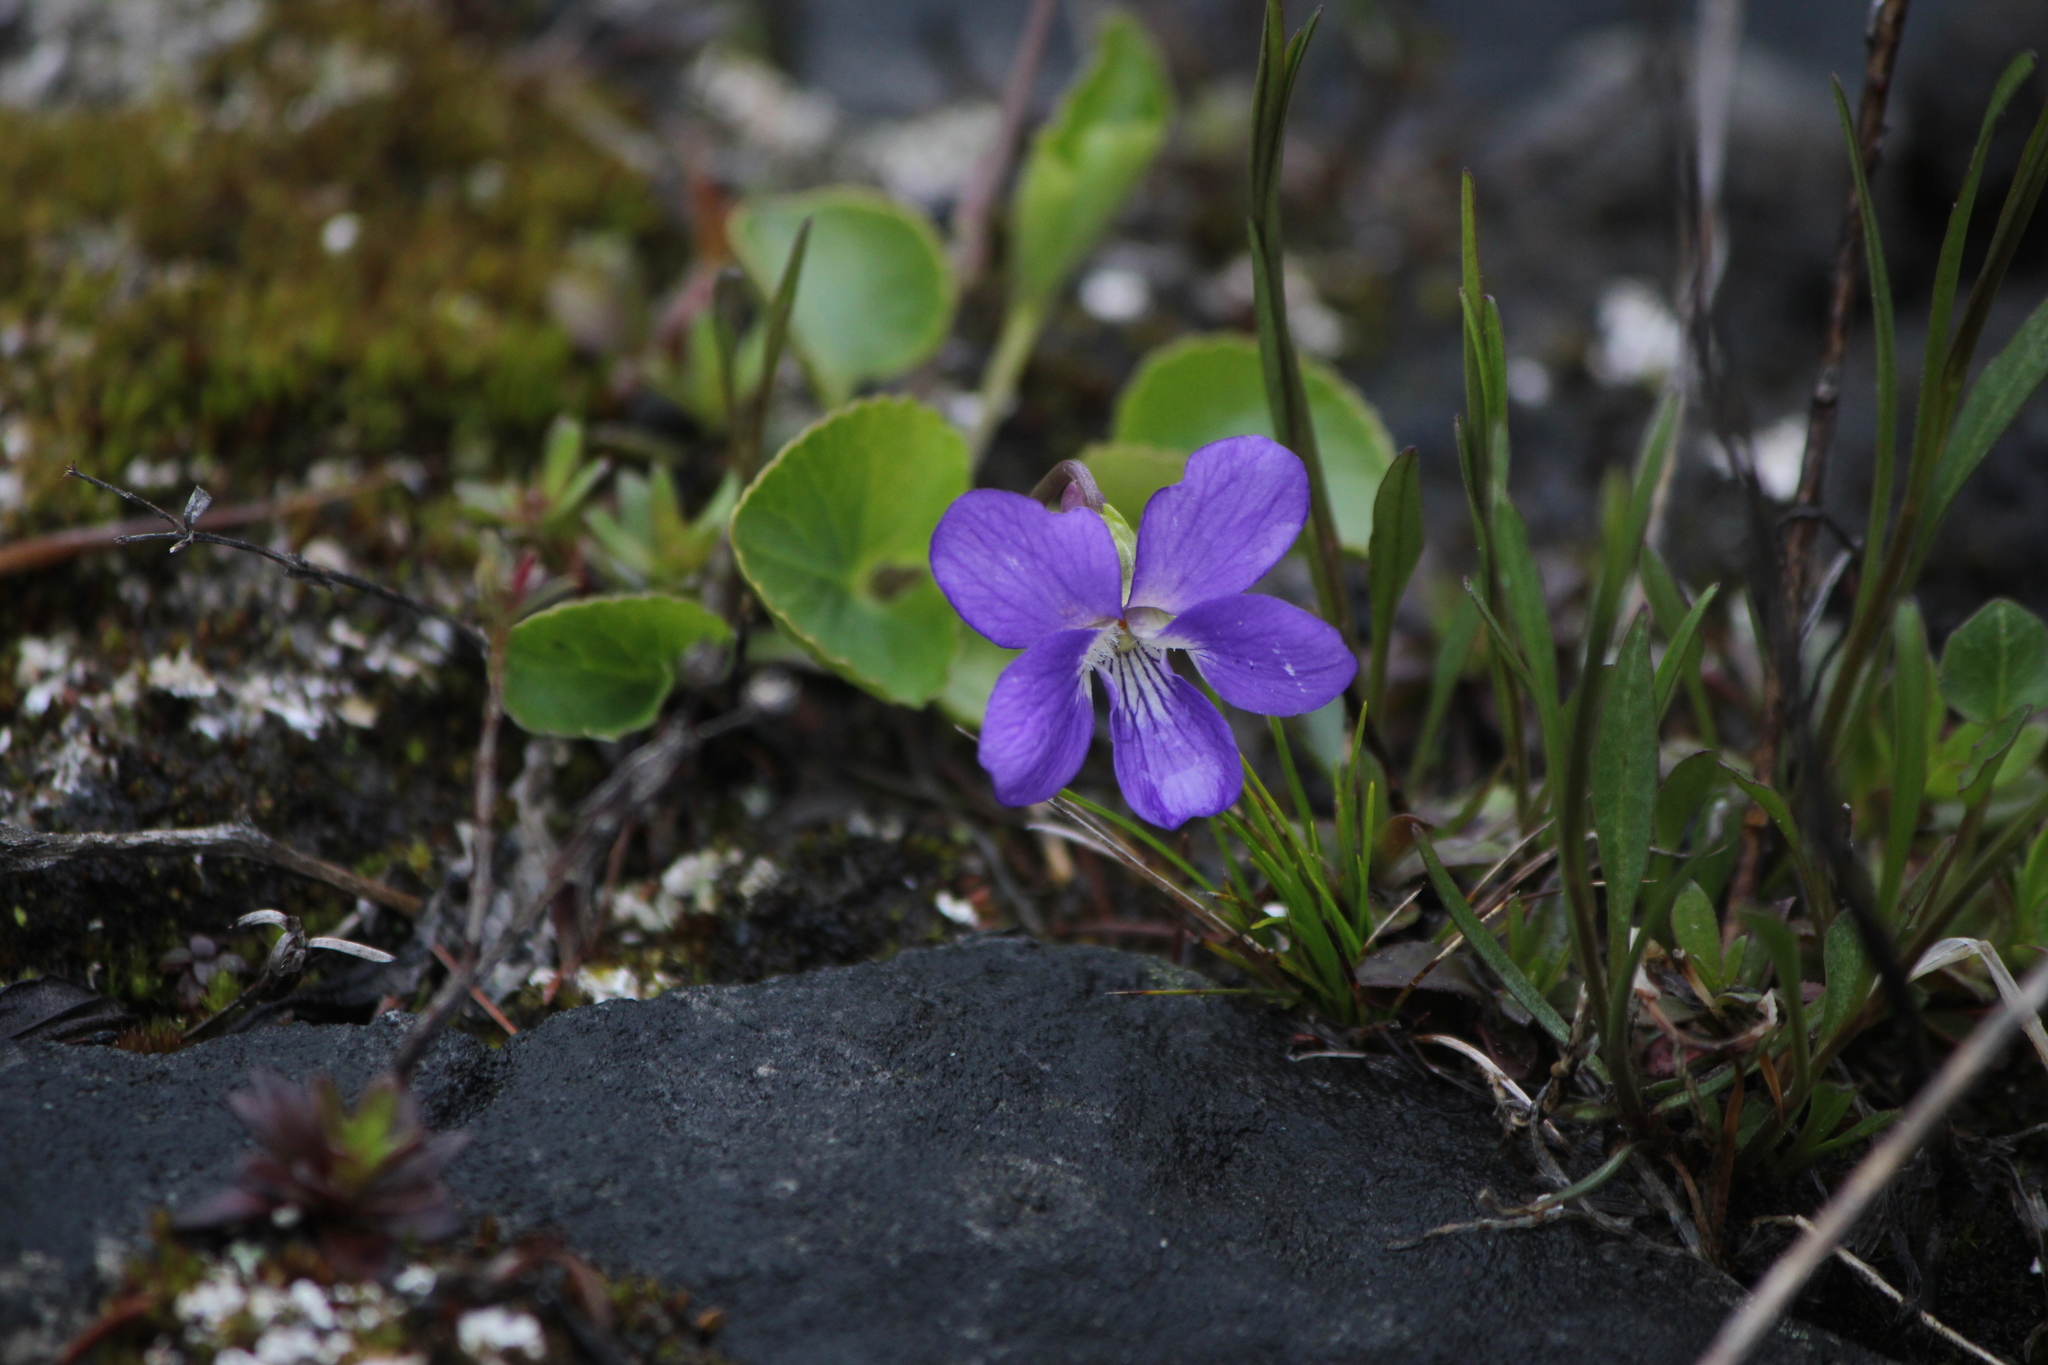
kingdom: Plantae
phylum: Tracheophyta
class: Magnoliopsida
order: Malpighiales
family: Violaceae
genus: Viola
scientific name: Viola nephrophylla
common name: Blue meadow violet
